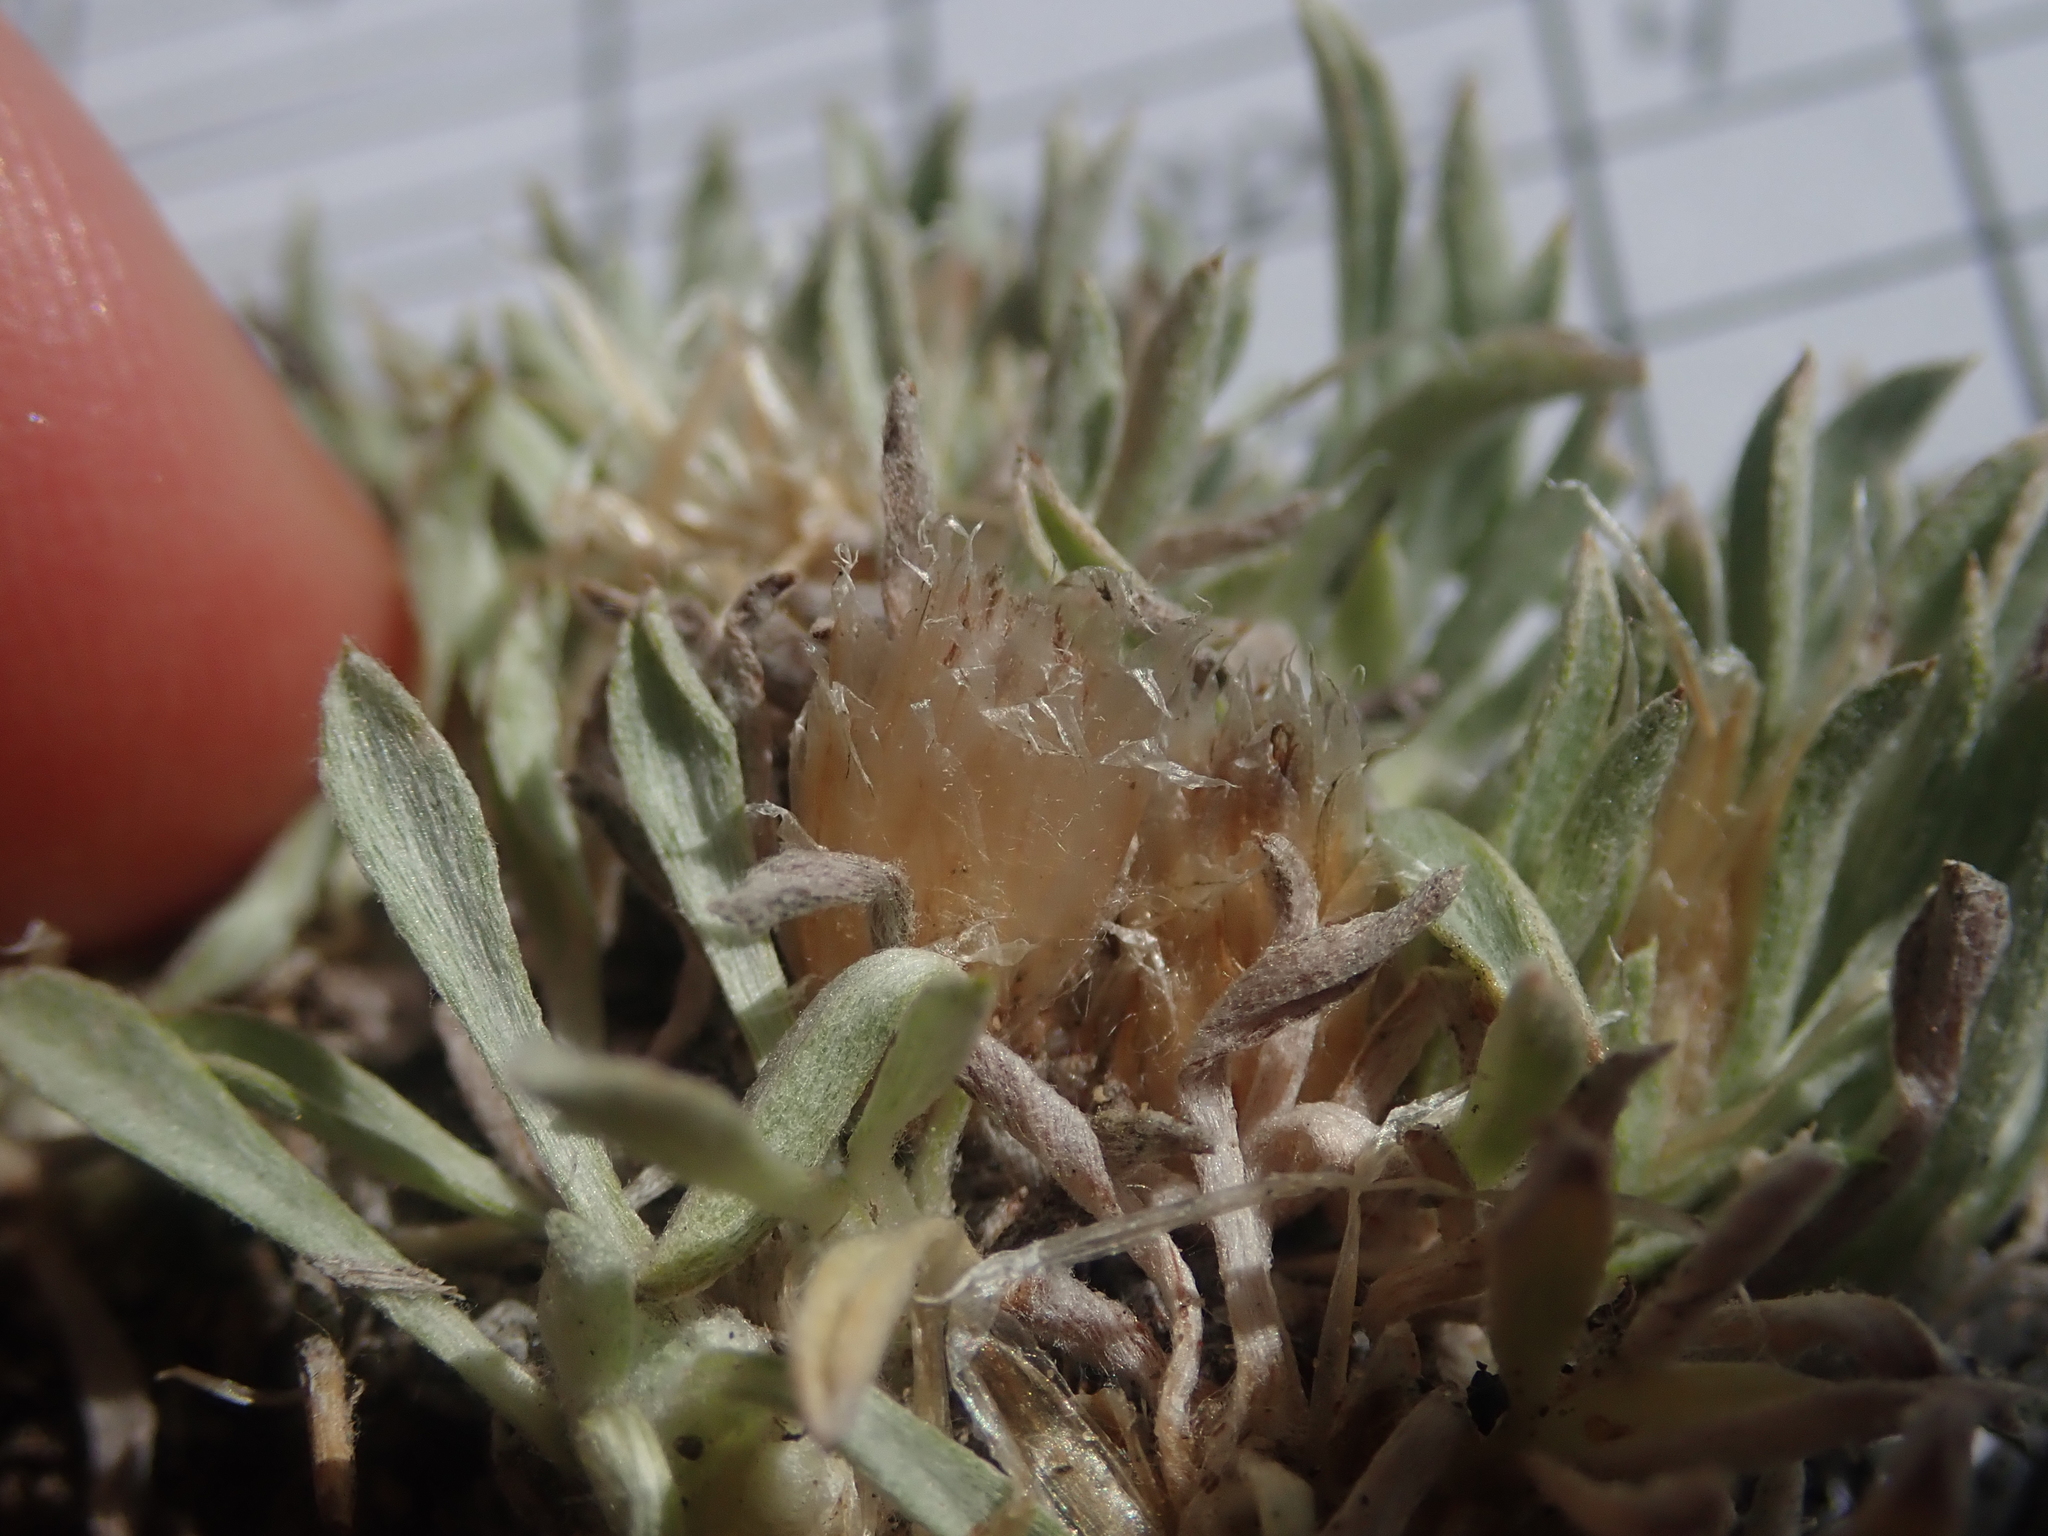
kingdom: Plantae
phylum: Tracheophyta
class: Magnoliopsida
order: Asterales
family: Asteraceae
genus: Antennaria
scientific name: Antennaria dimorpha
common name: Cushion pussytoes
